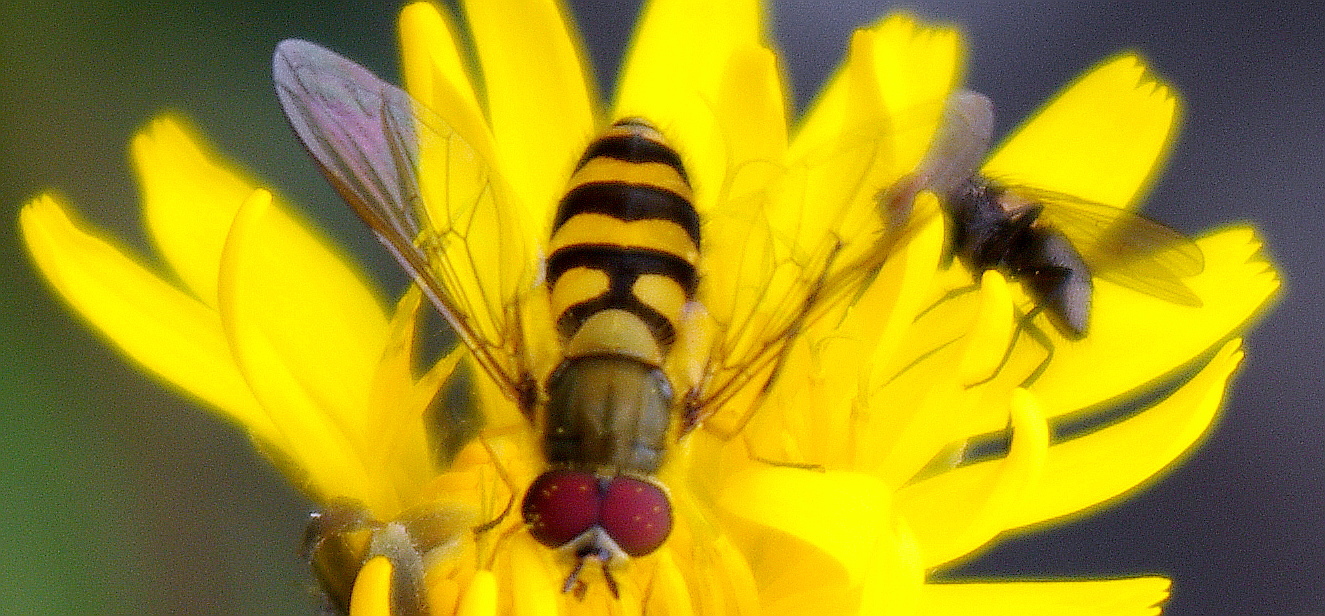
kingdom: Animalia
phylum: Arthropoda
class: Insecta
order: Diptera
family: Syrphidae
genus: Syrphus
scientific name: Syrphus
